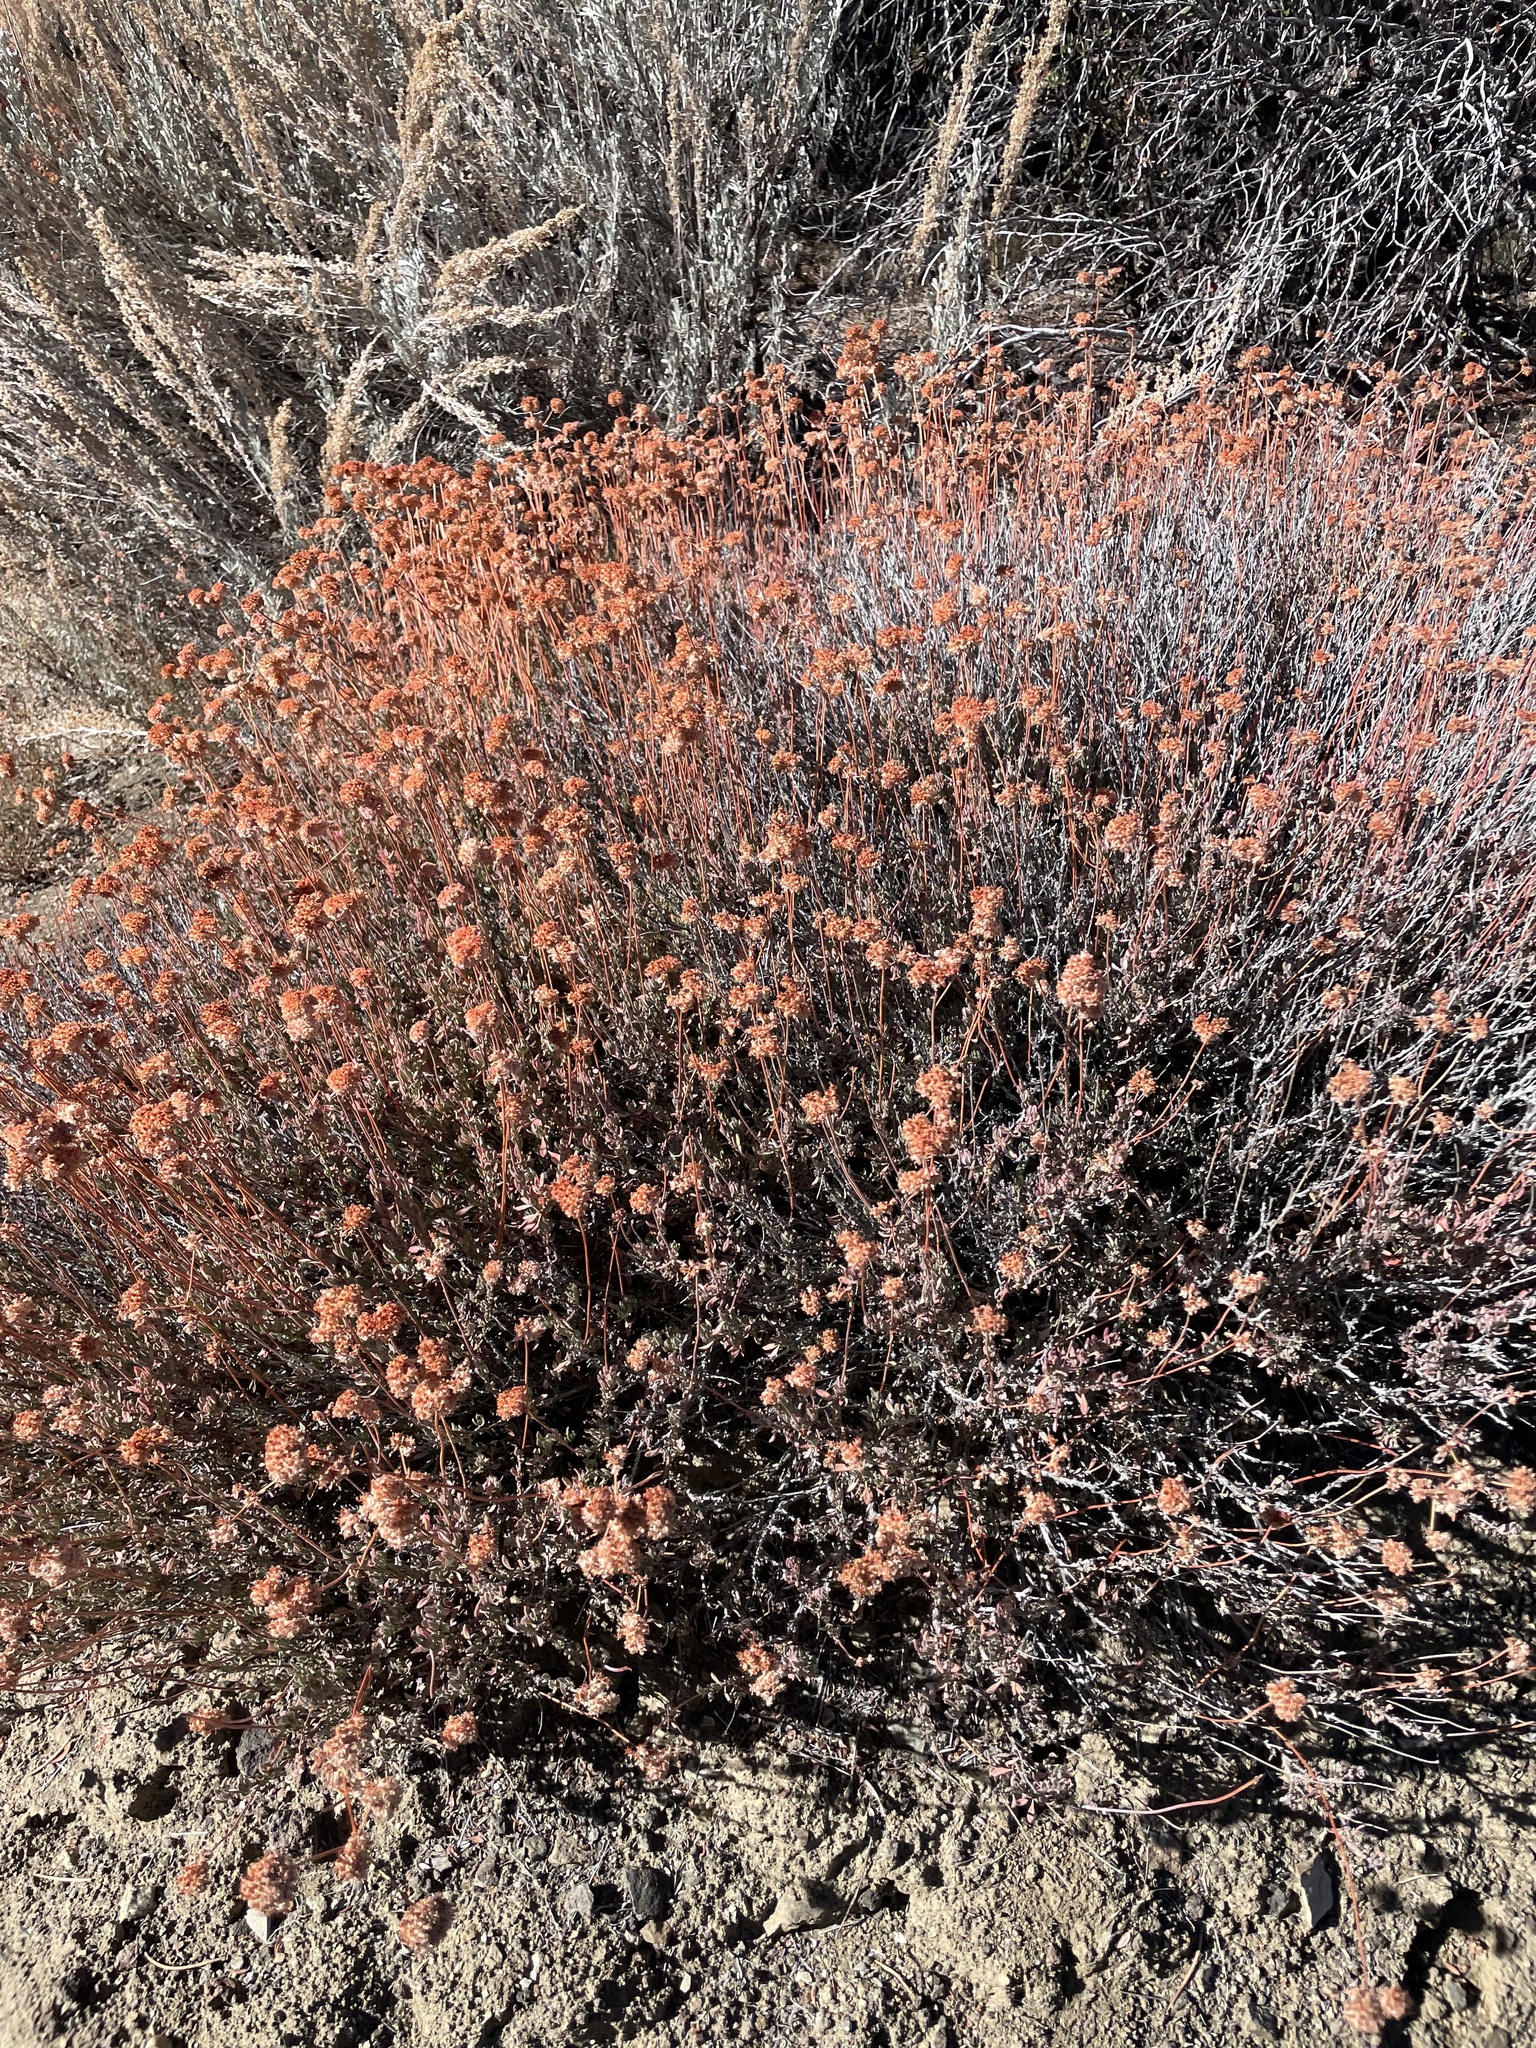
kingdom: Plantae
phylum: Tracheophyta
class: Magnoliopsida
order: Caryophyllales
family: Polygonaceae
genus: Eriogonum
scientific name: Eriogonum fasciculatum
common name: California wild buckwheat
